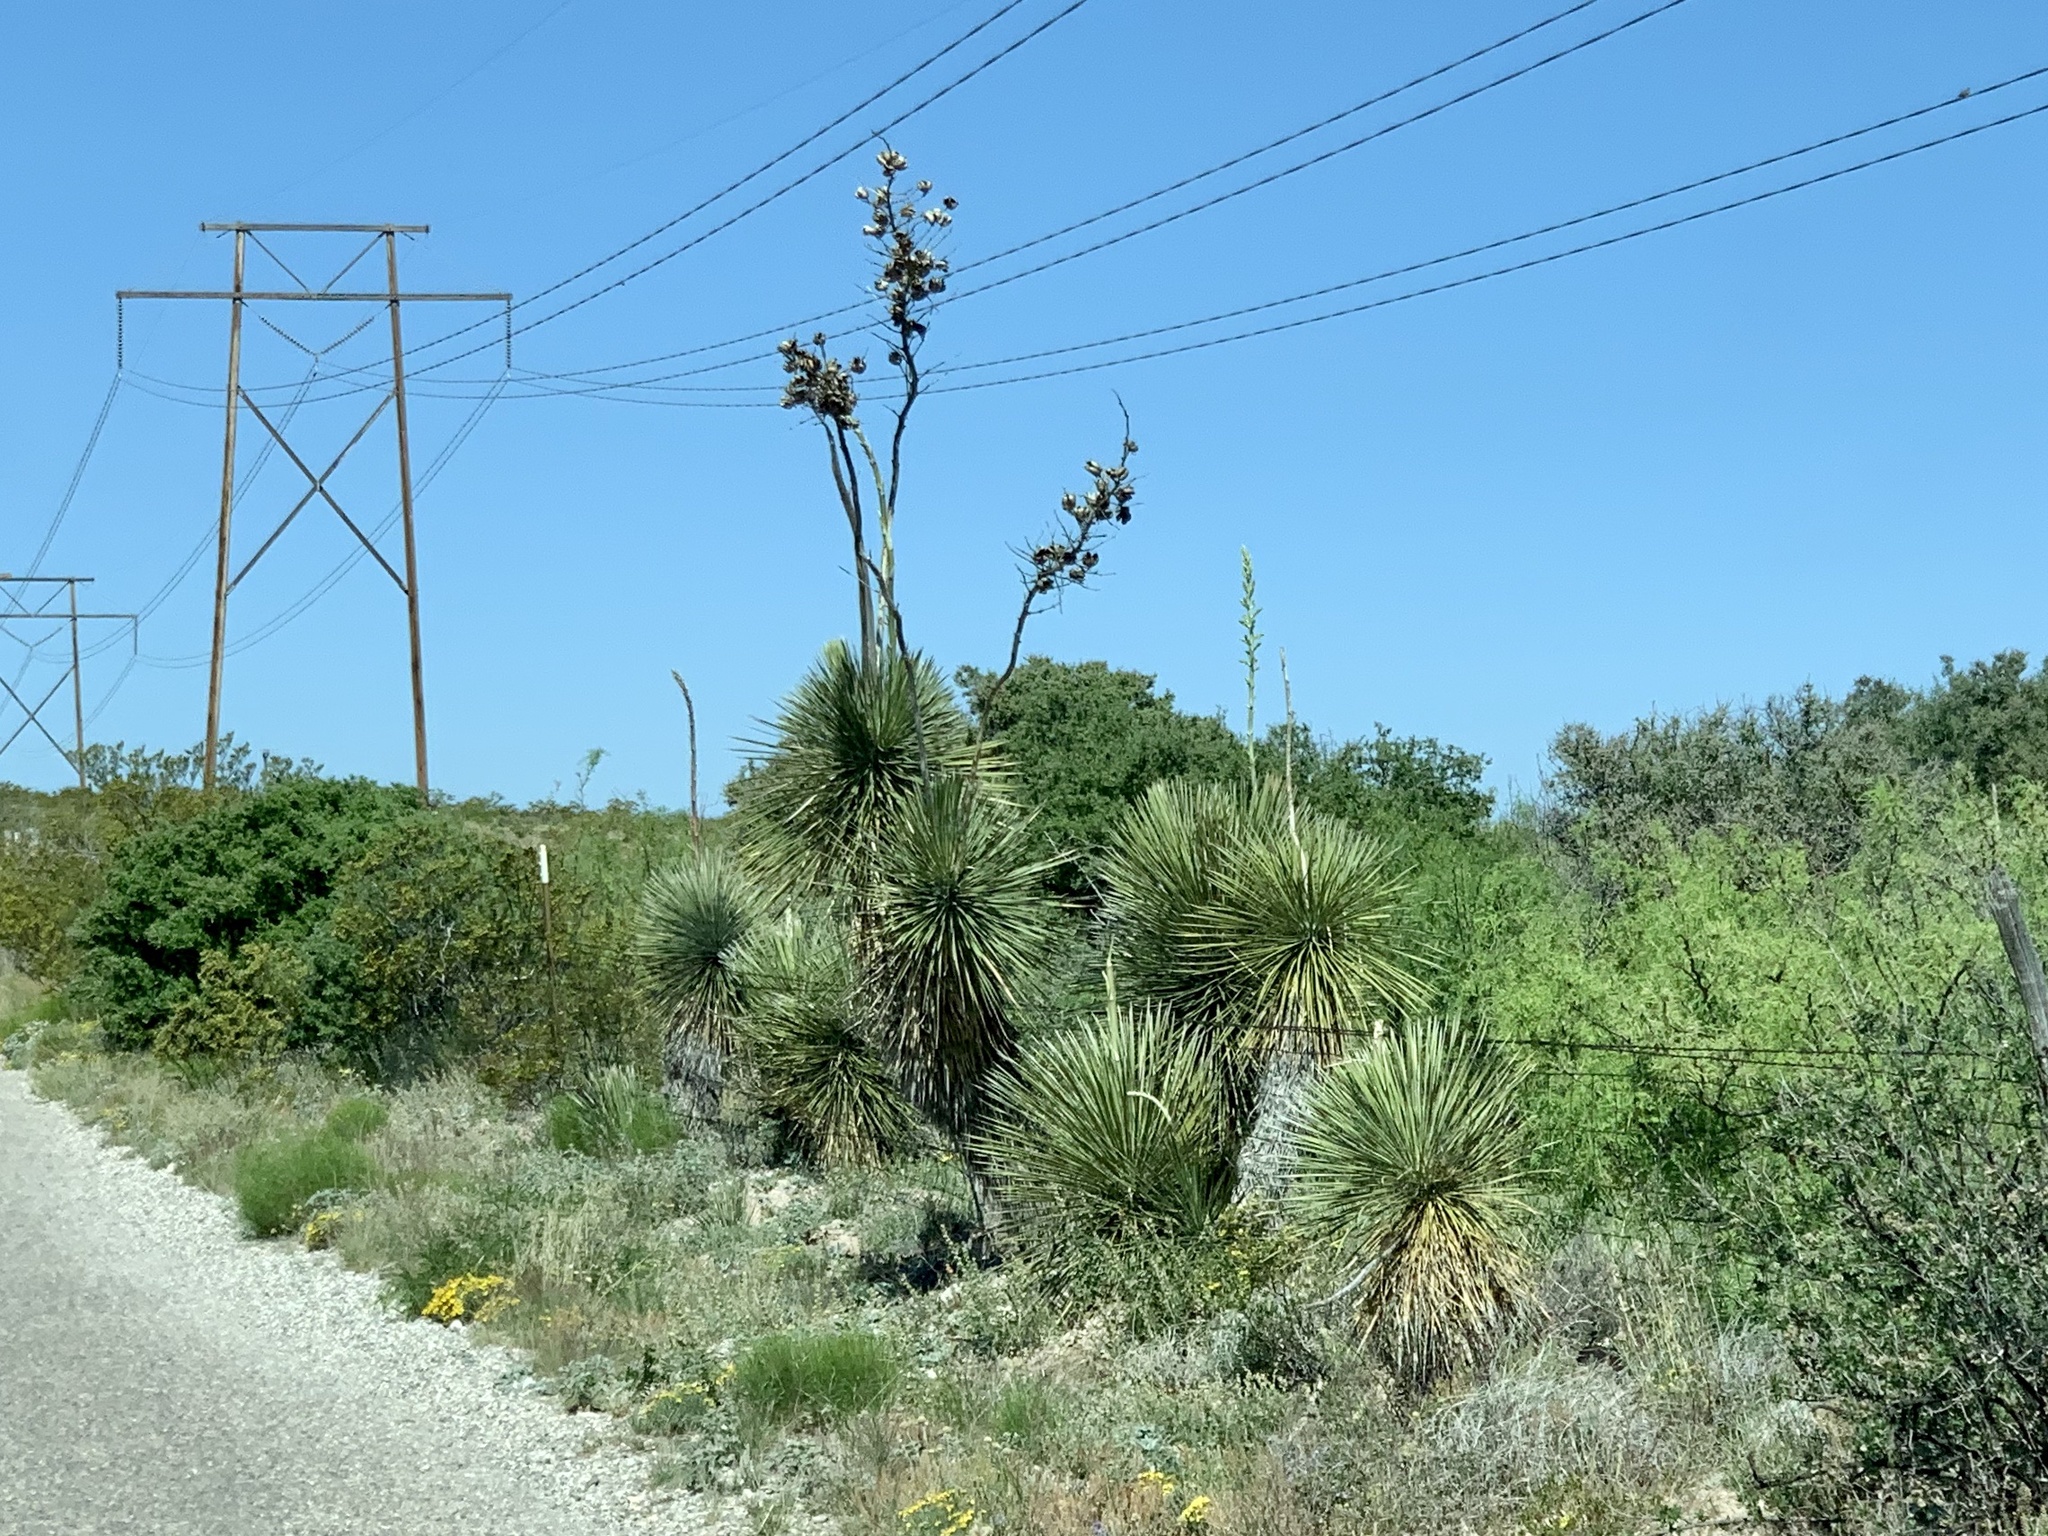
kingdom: Plantae
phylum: Tracheophyta
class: Liliopsida
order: Asparagales
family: Asparagaceae
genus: Yucca
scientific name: Yucca elata
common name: Palmella
